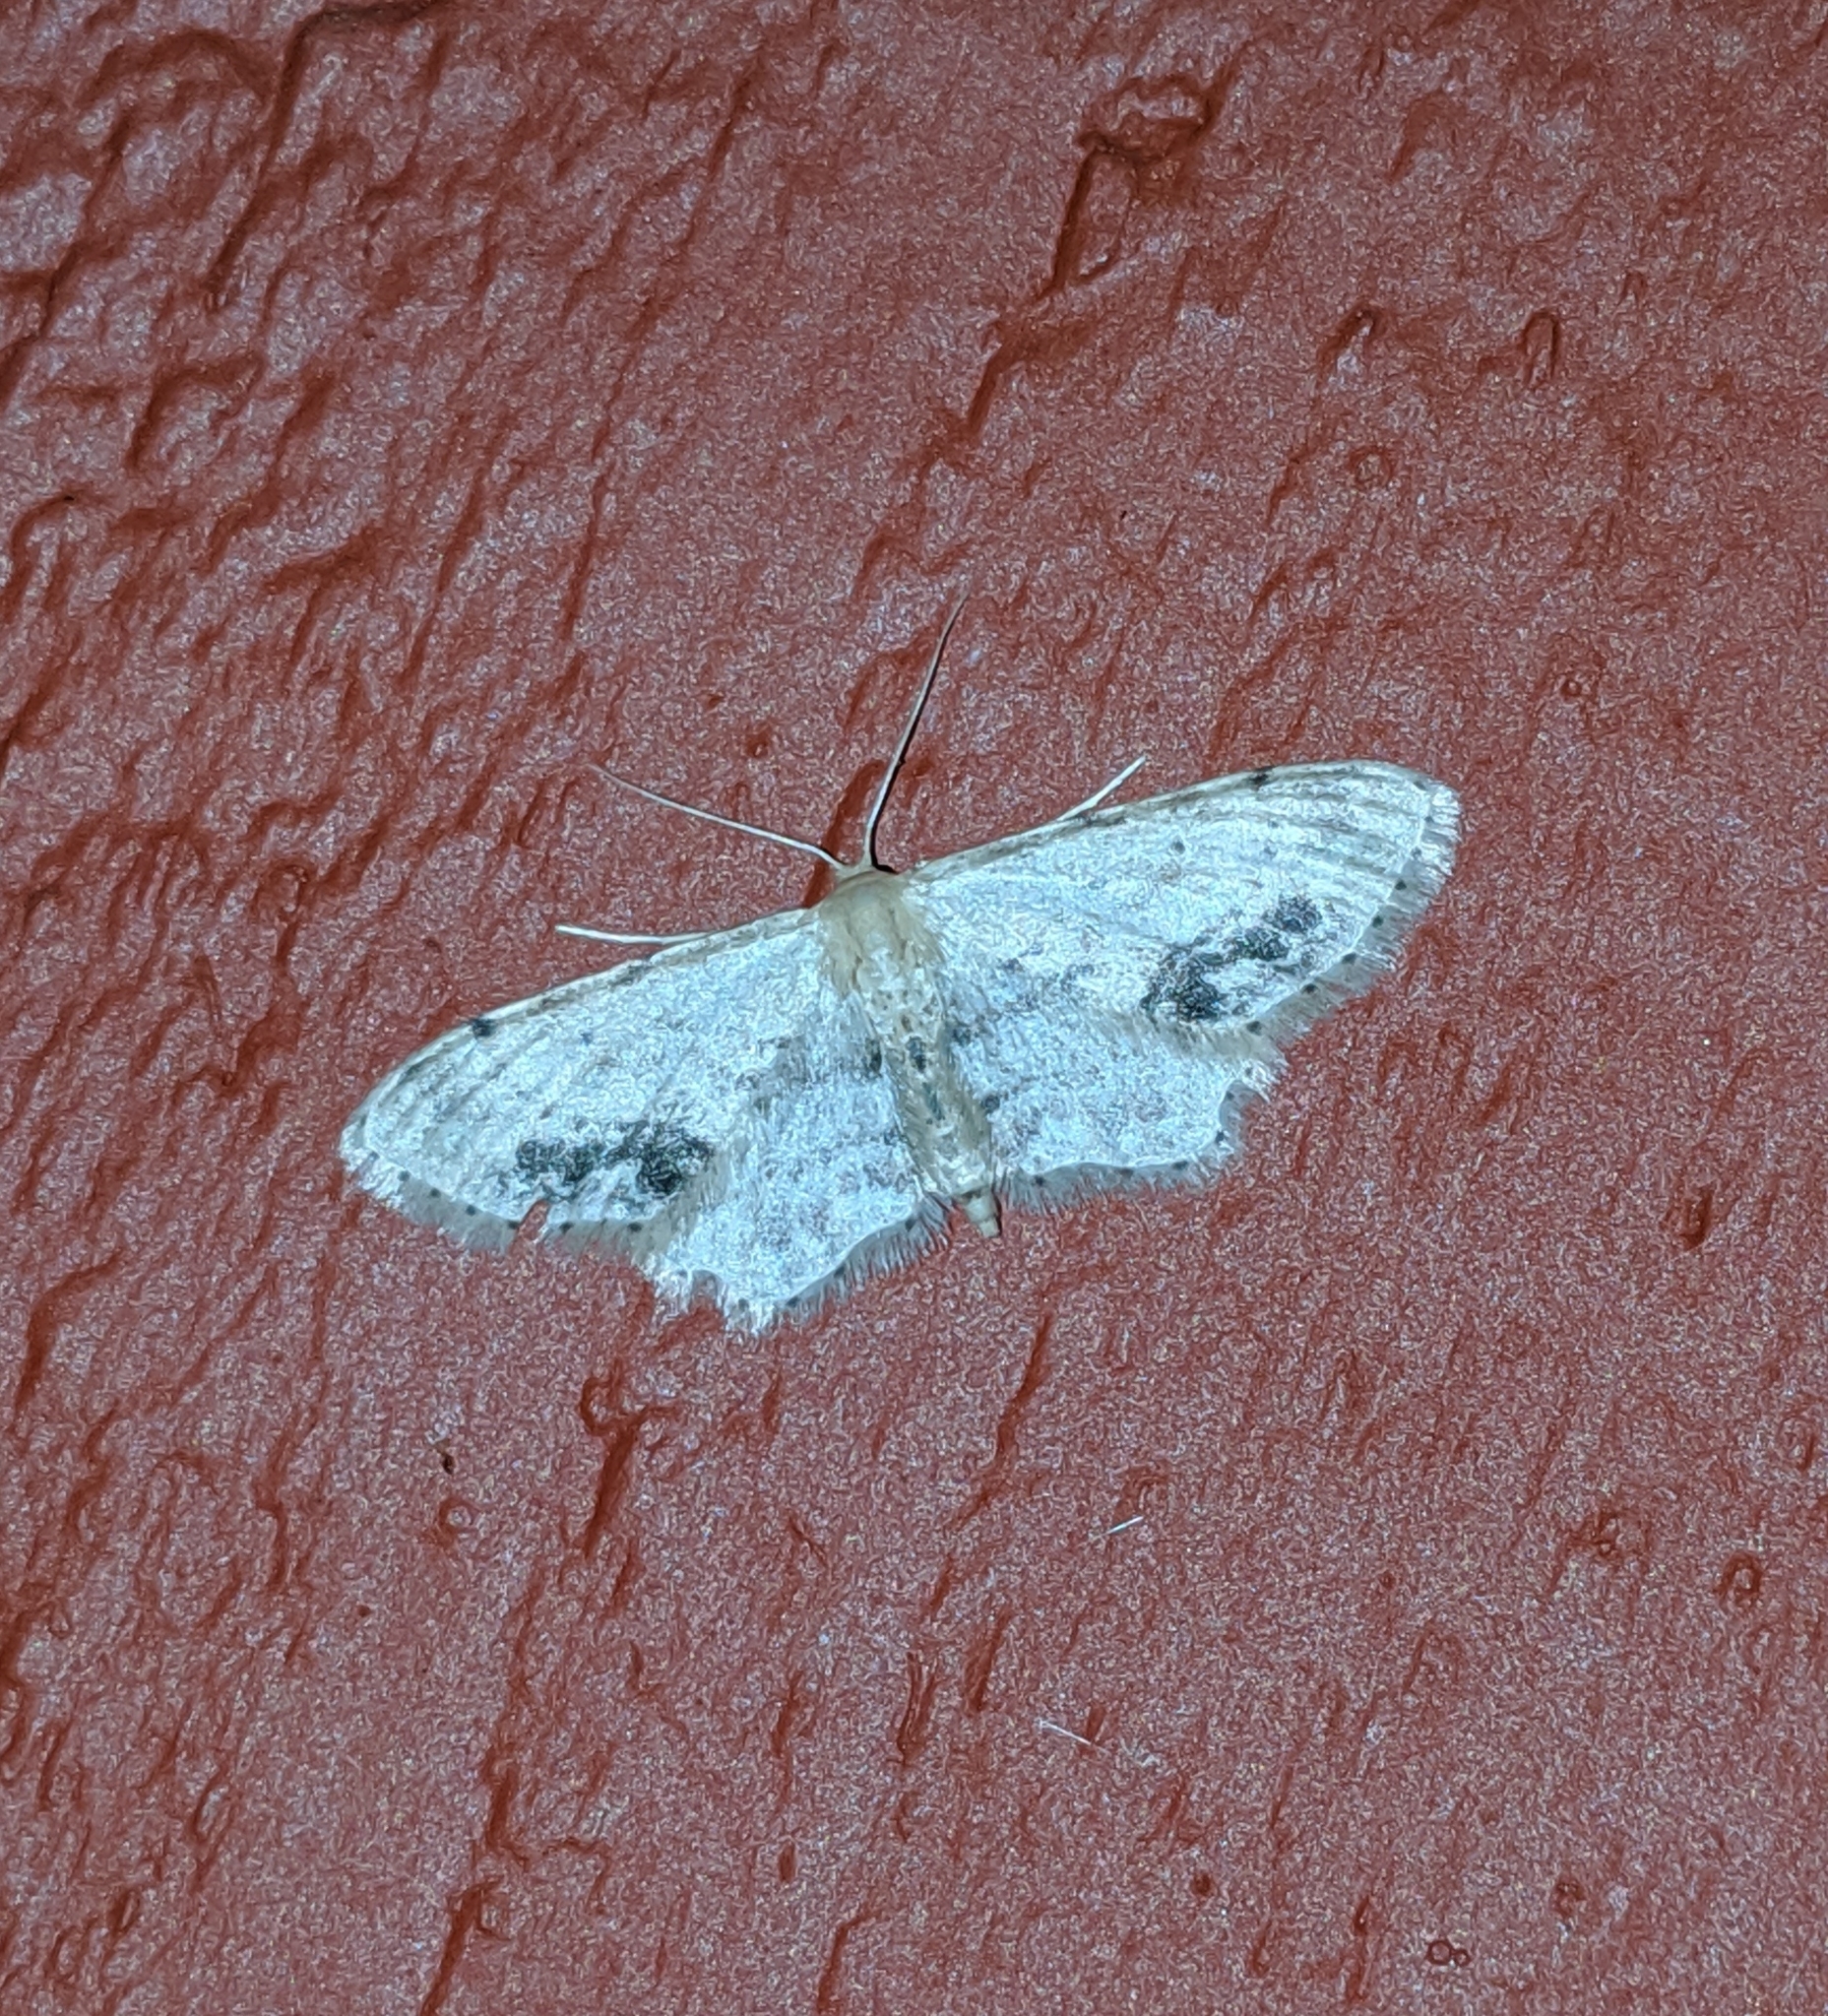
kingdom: Animalia
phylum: Arthropoda
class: Insecta
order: Lepidoptera
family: Geometridae
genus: Idaea
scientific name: Idaea dimidiata
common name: Single-dotted wave
